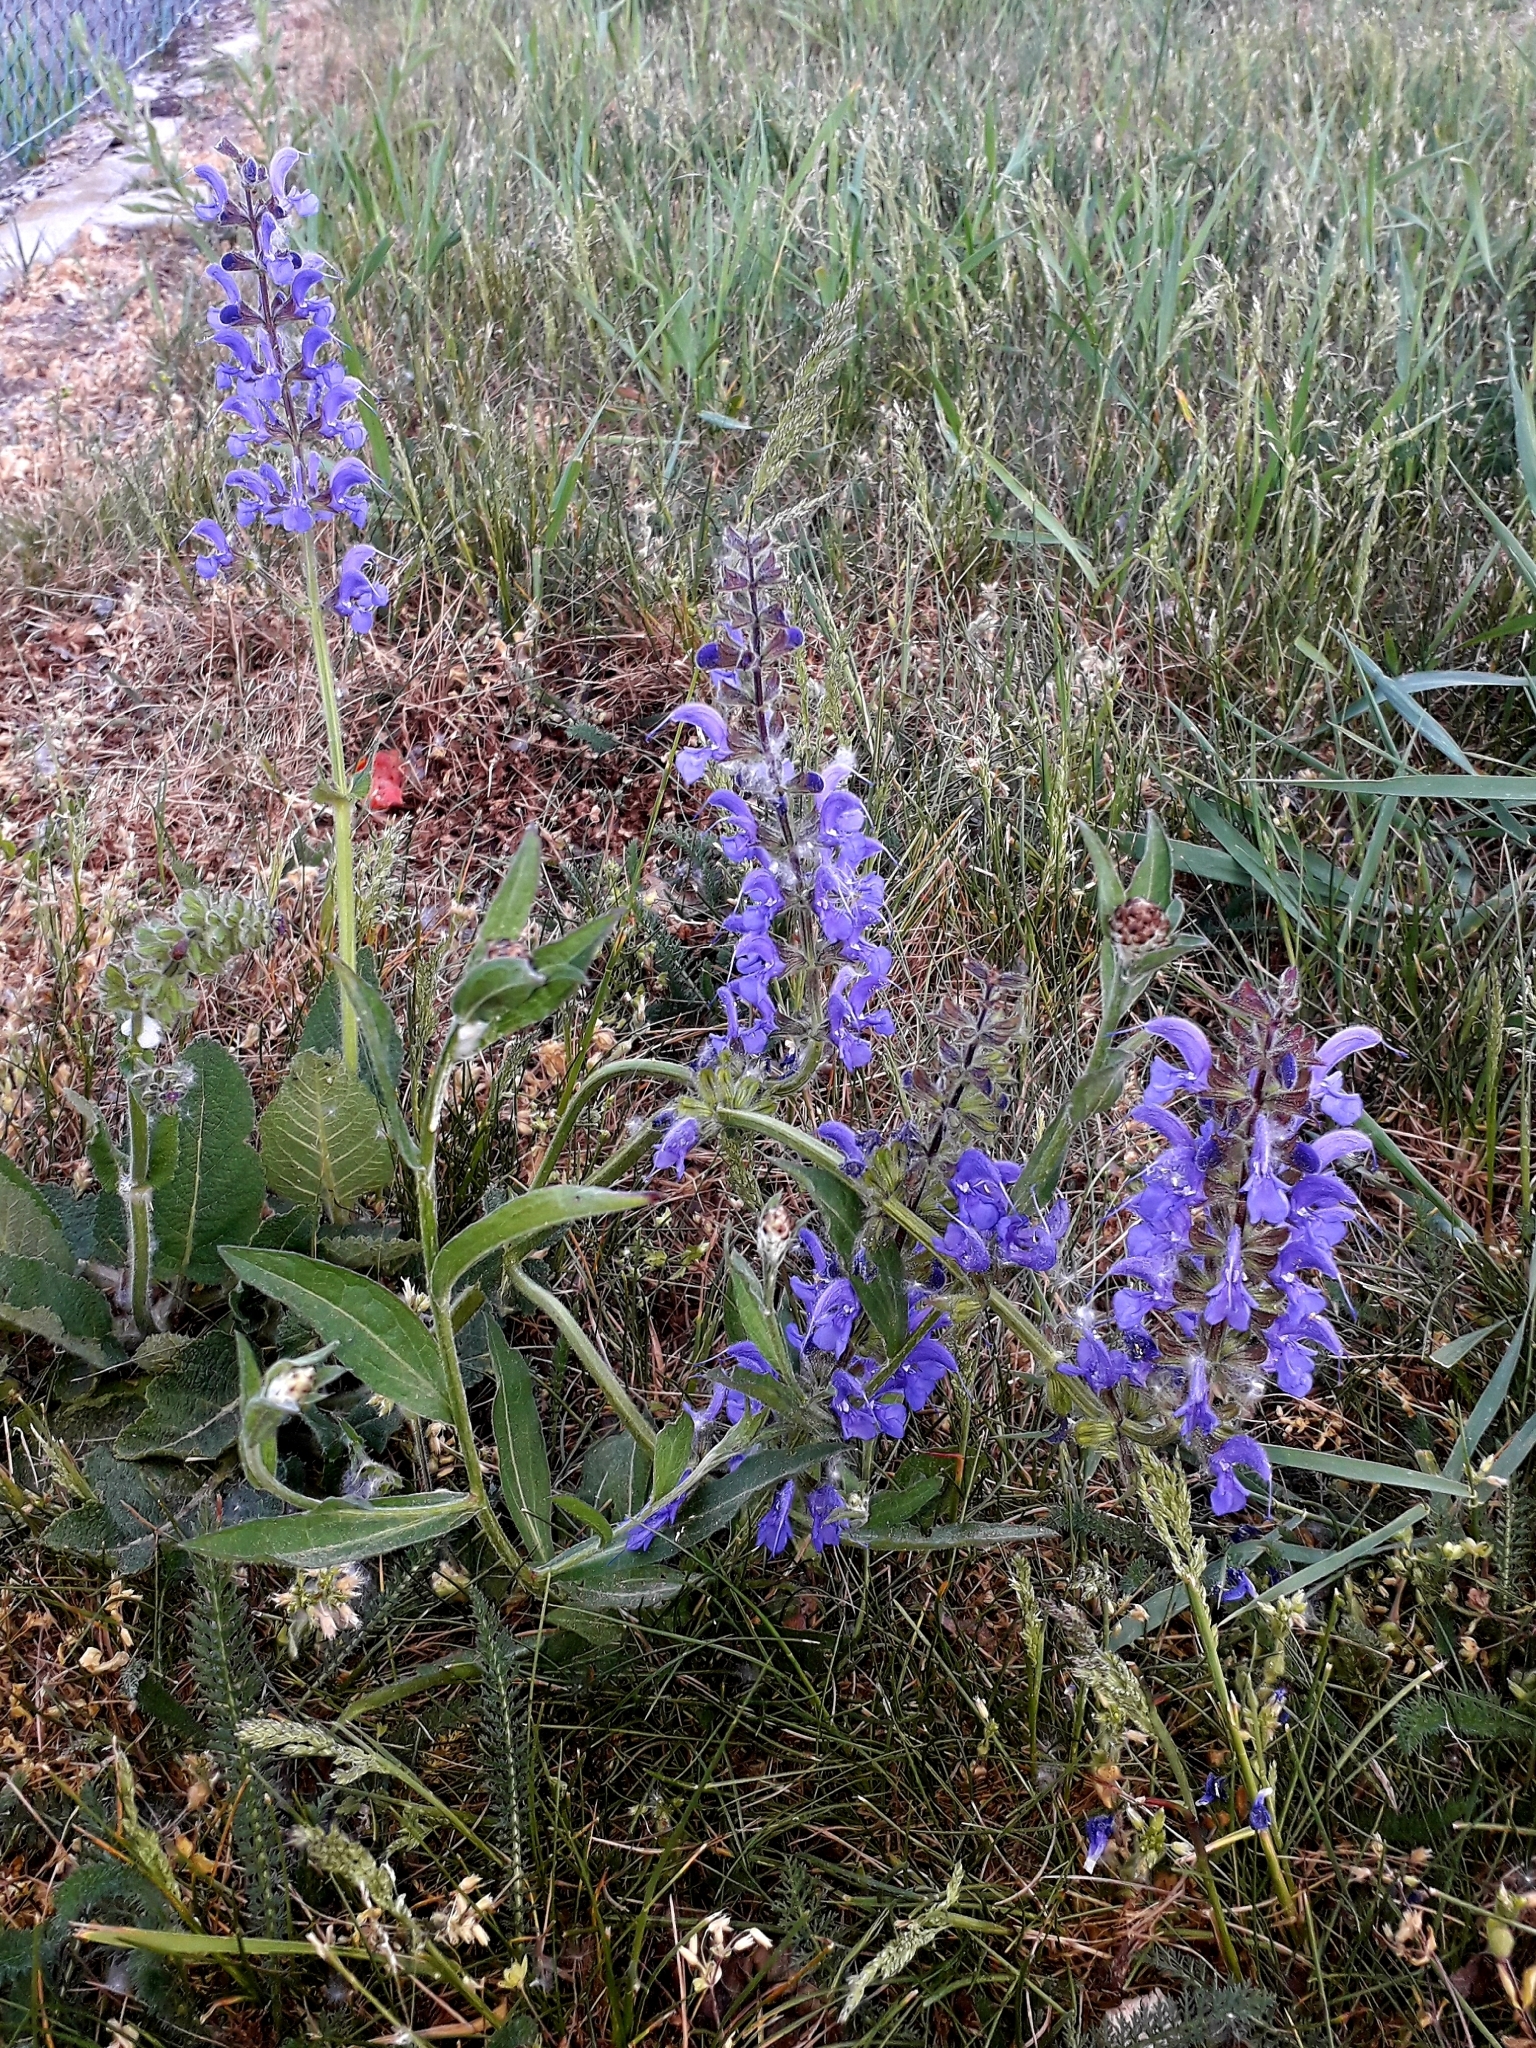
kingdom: Plantae
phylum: Tracheophyta
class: Magnoliopsida
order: Lamiales
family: Lamiaceae
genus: Salvia
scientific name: Salvia pratensis
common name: Meadow sage
